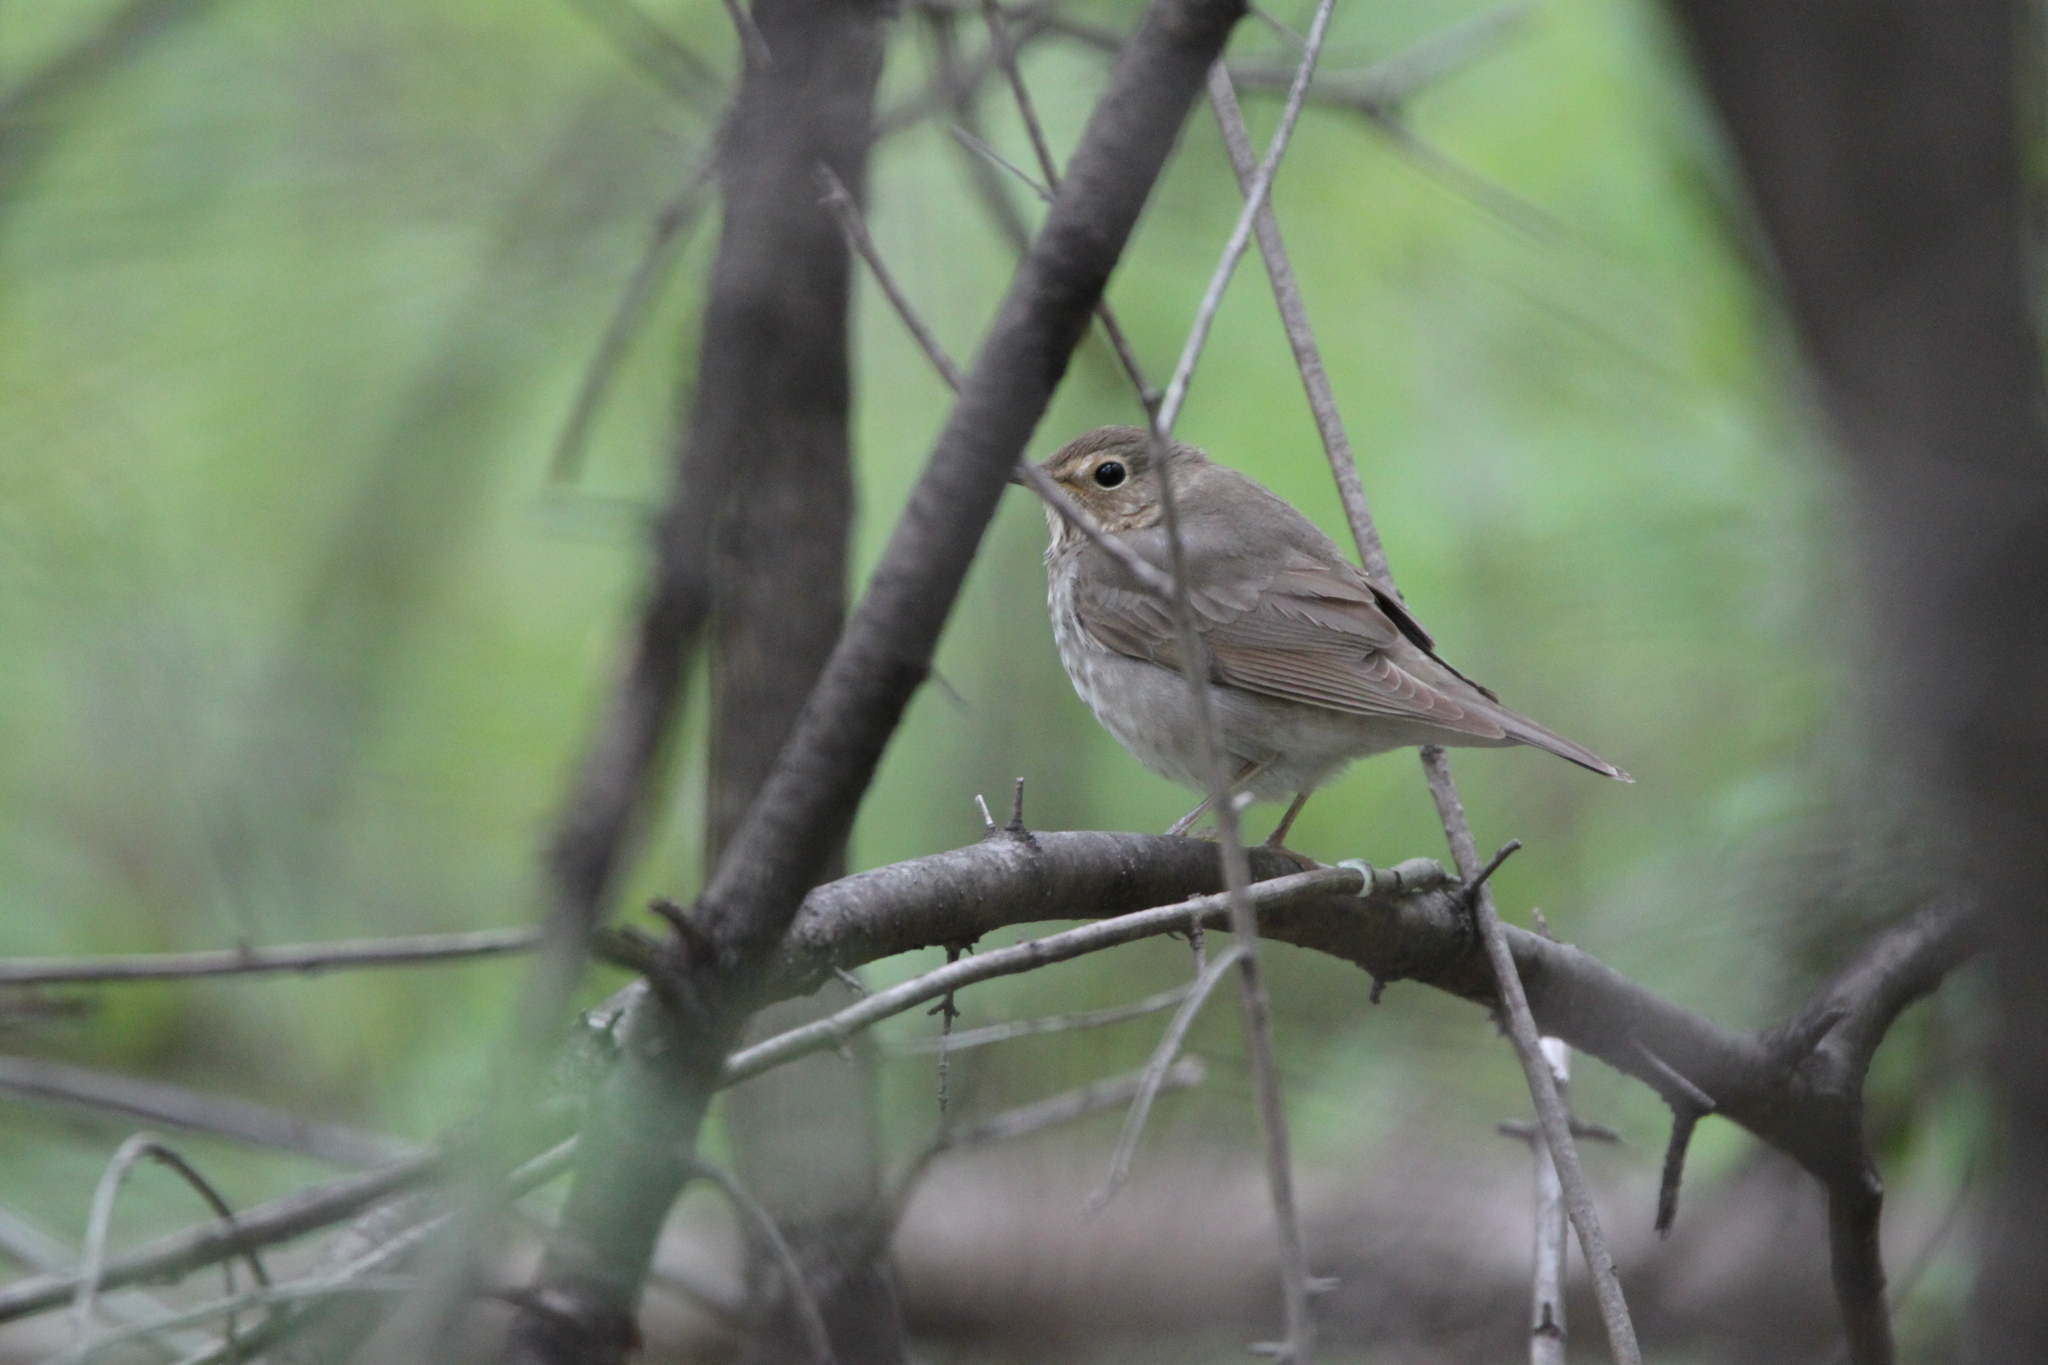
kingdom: Animalia
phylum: Chordata
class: Aves
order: Passeriformes
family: Turdidae
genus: Catharus
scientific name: Catharus ustulatus
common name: Swainson's thrush
